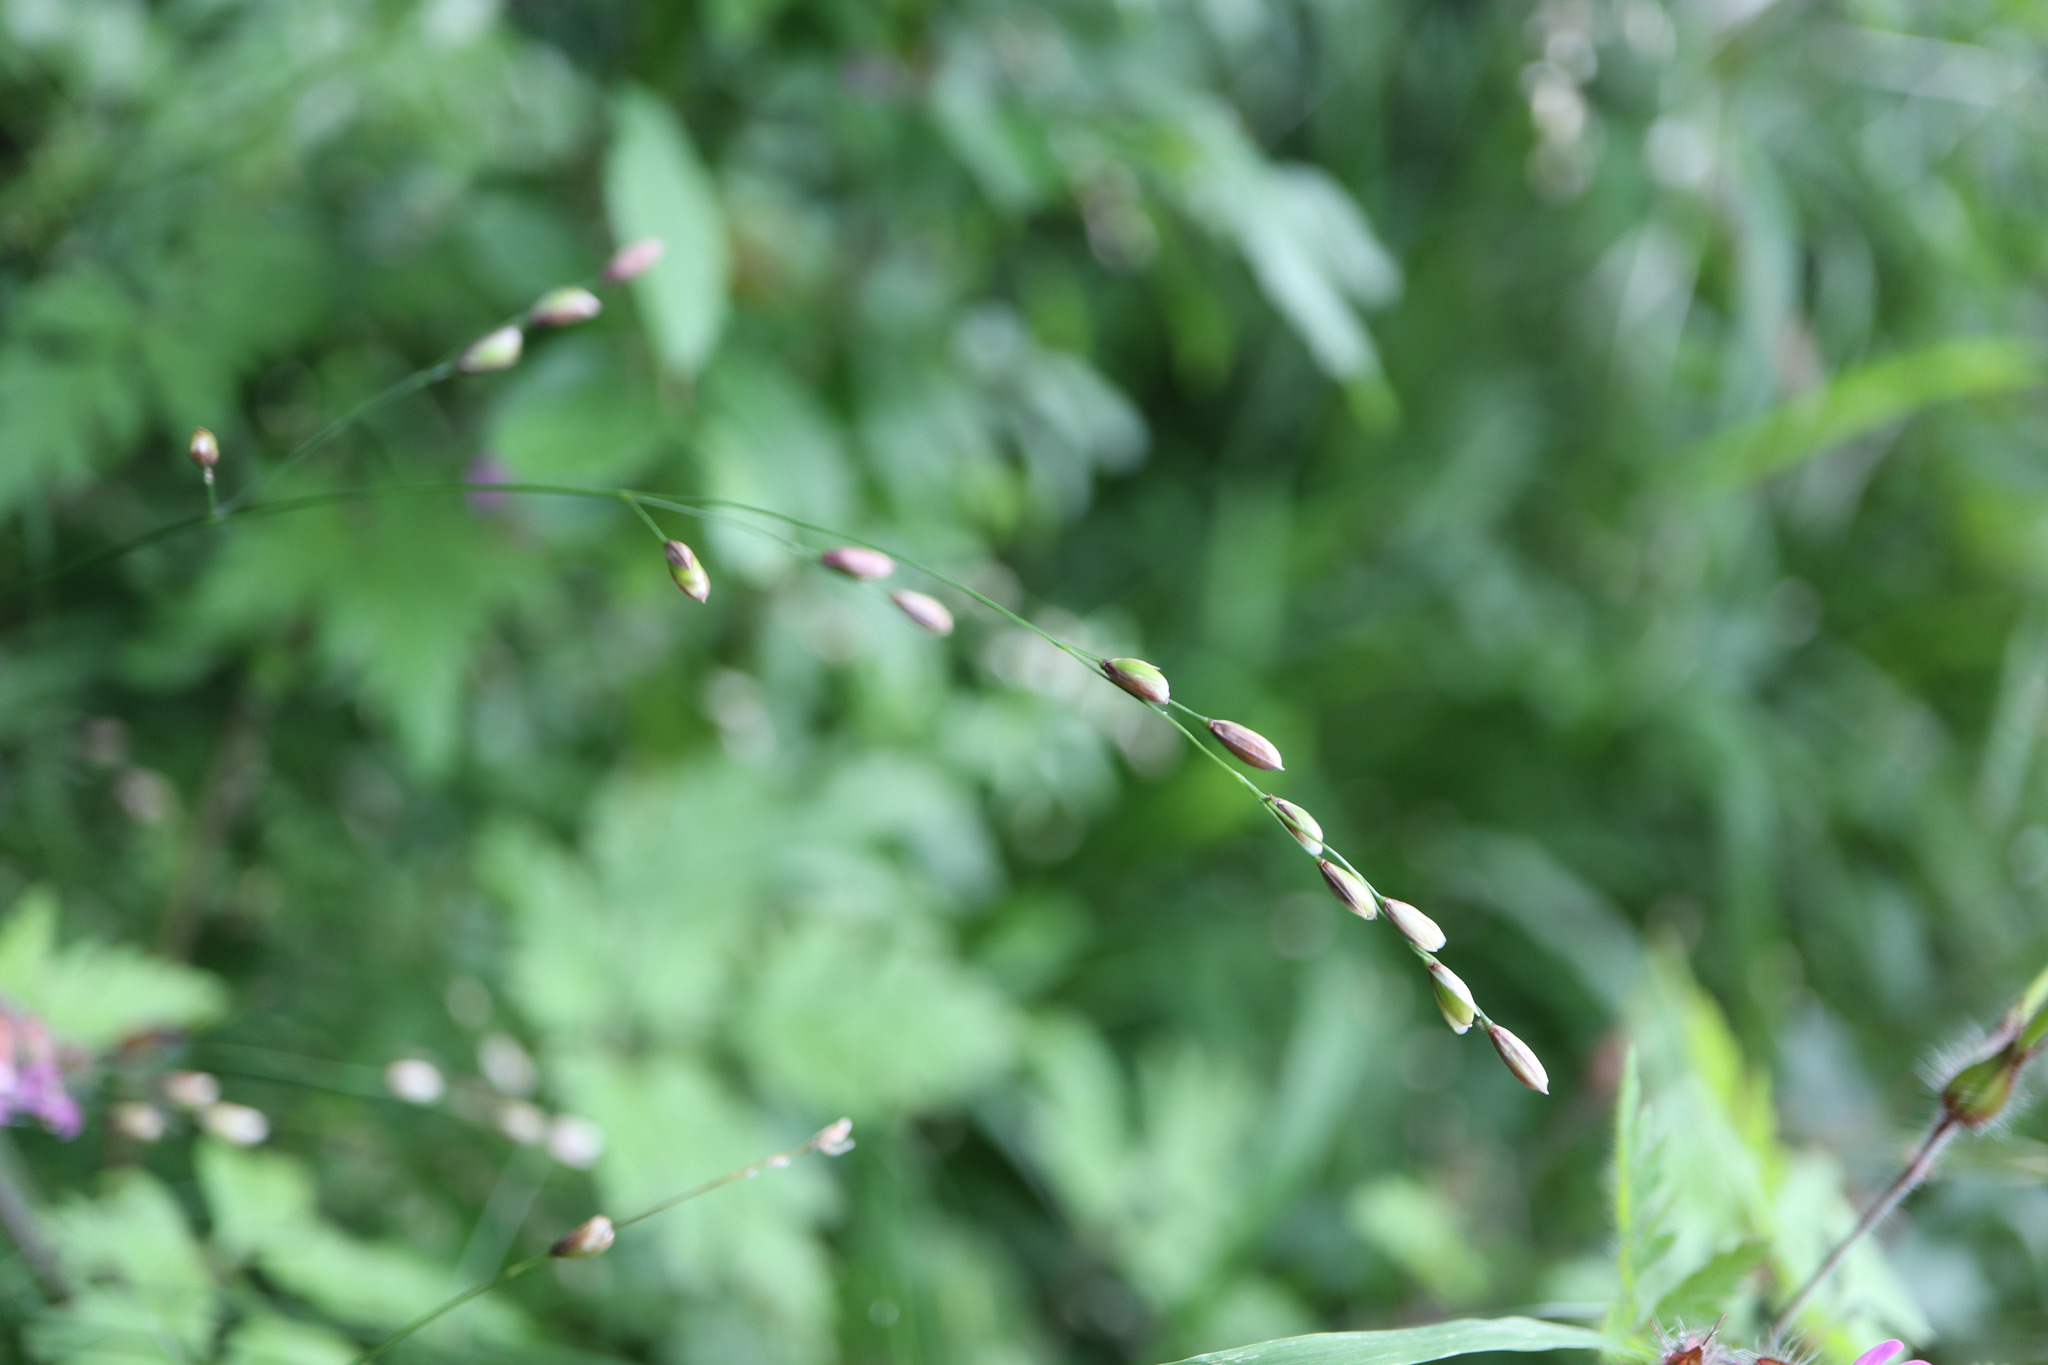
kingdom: Plantae
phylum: Tracheophyta
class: Liliopsida
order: Poales
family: Poaceae
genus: Melica
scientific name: Melica uniflora
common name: Wood melick
